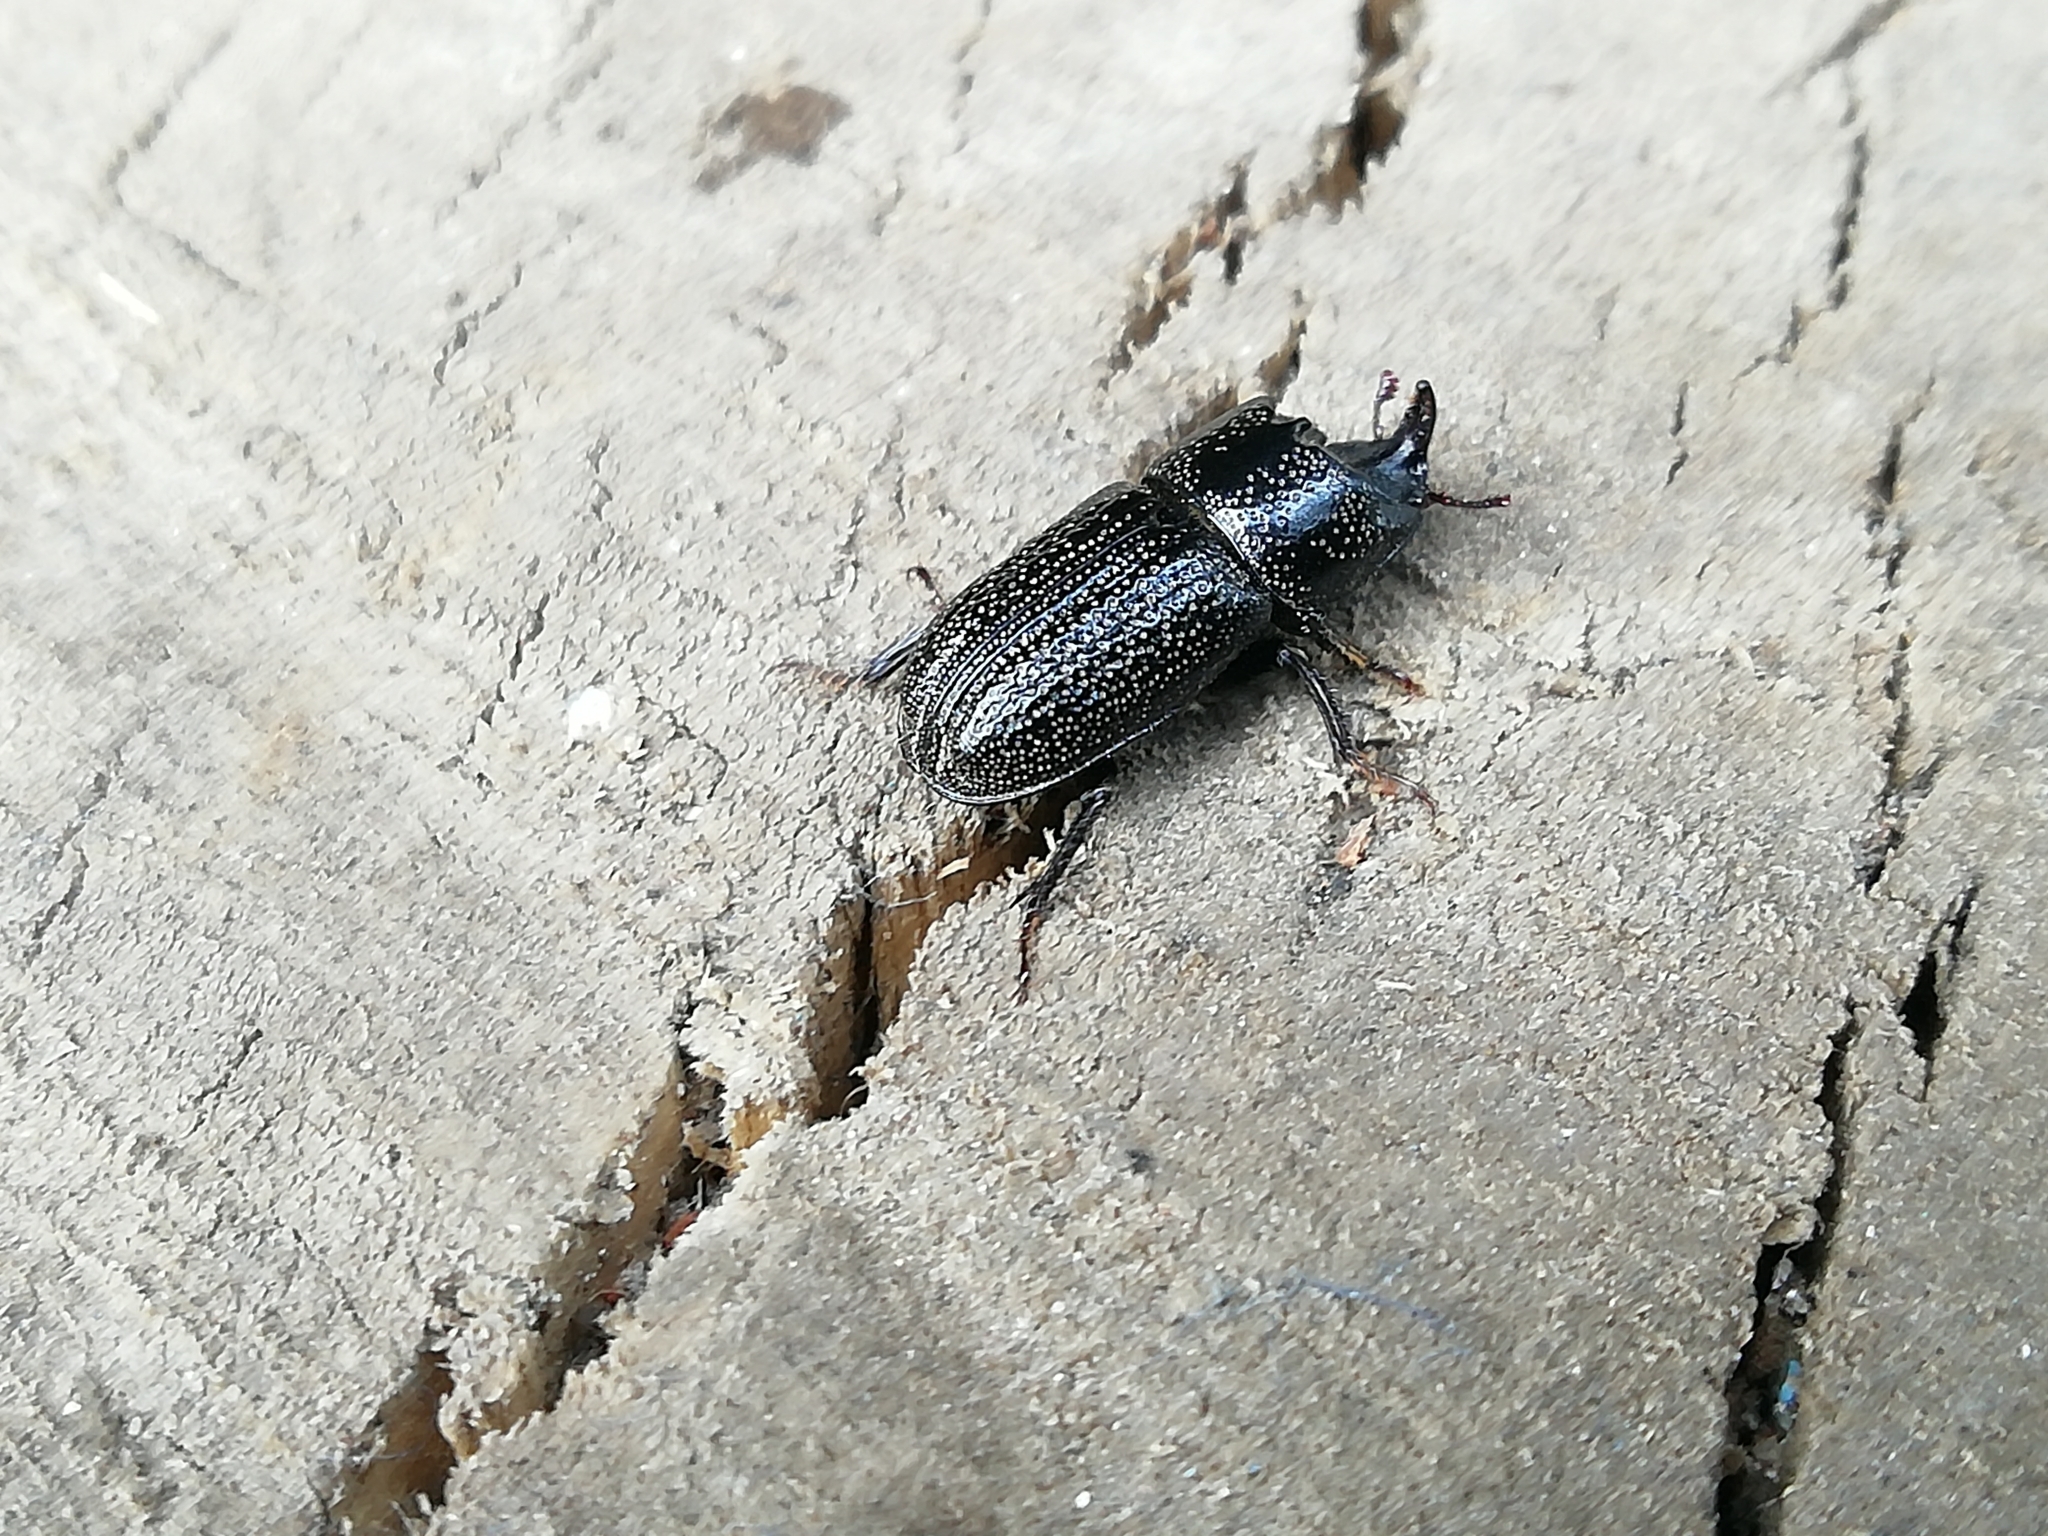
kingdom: Animalia
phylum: Arthropoda
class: Insecta
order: Coleoptera
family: Lucanidae
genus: Sinodendron
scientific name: Sinodendron cylindricum
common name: Rhinoceros beetle
